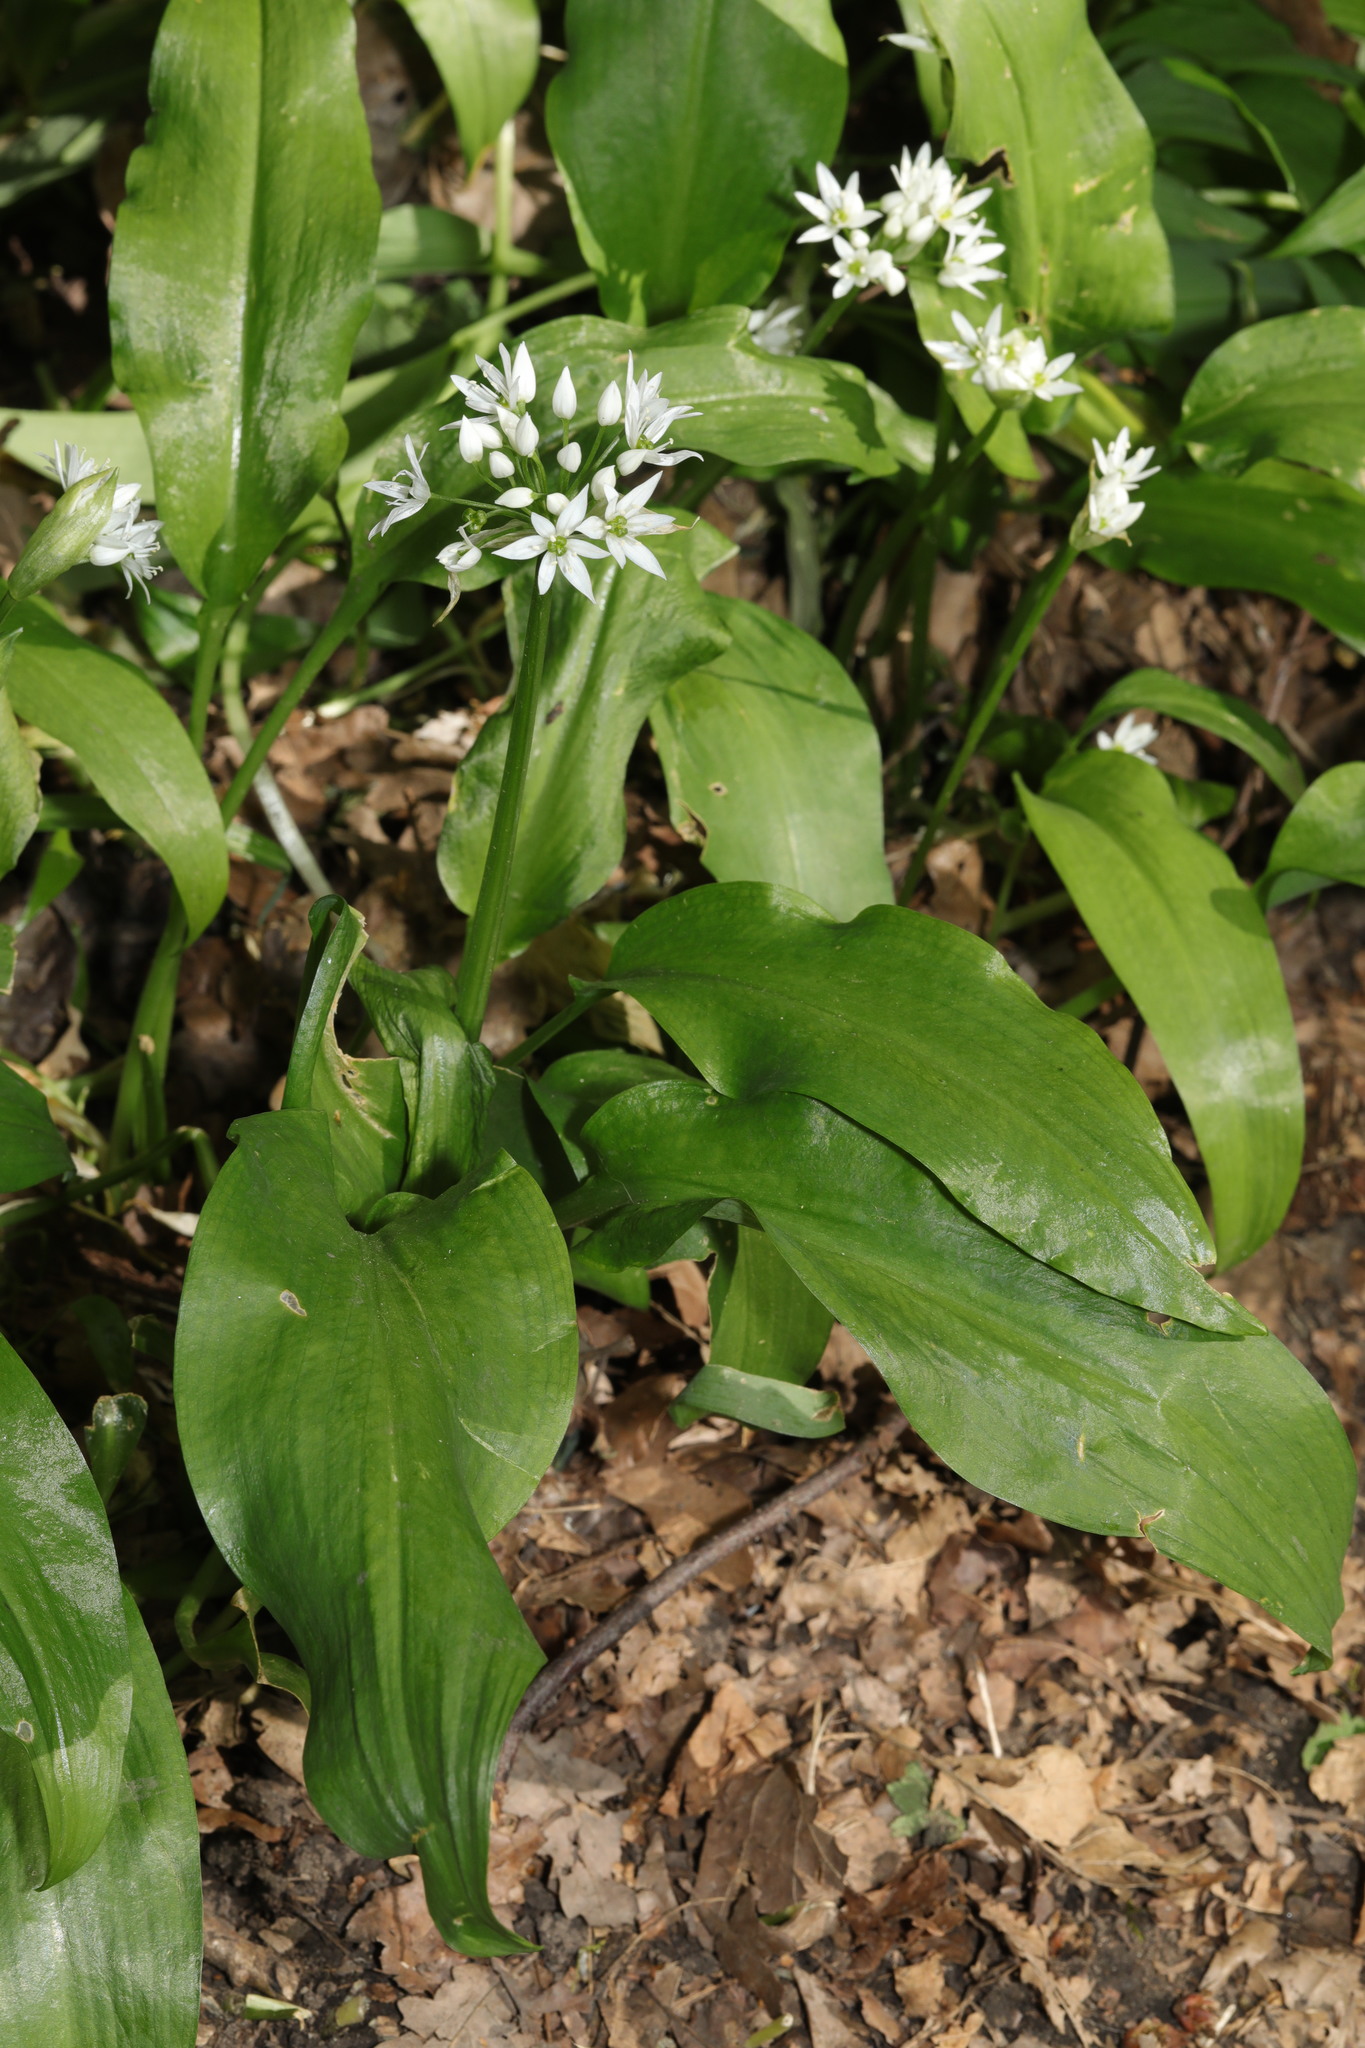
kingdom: Plantae
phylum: Tracheophyta
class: Liliopsida
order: Asparagales
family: Amaryllidaceae
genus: Allium
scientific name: Allium ursinum
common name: Ramsons
